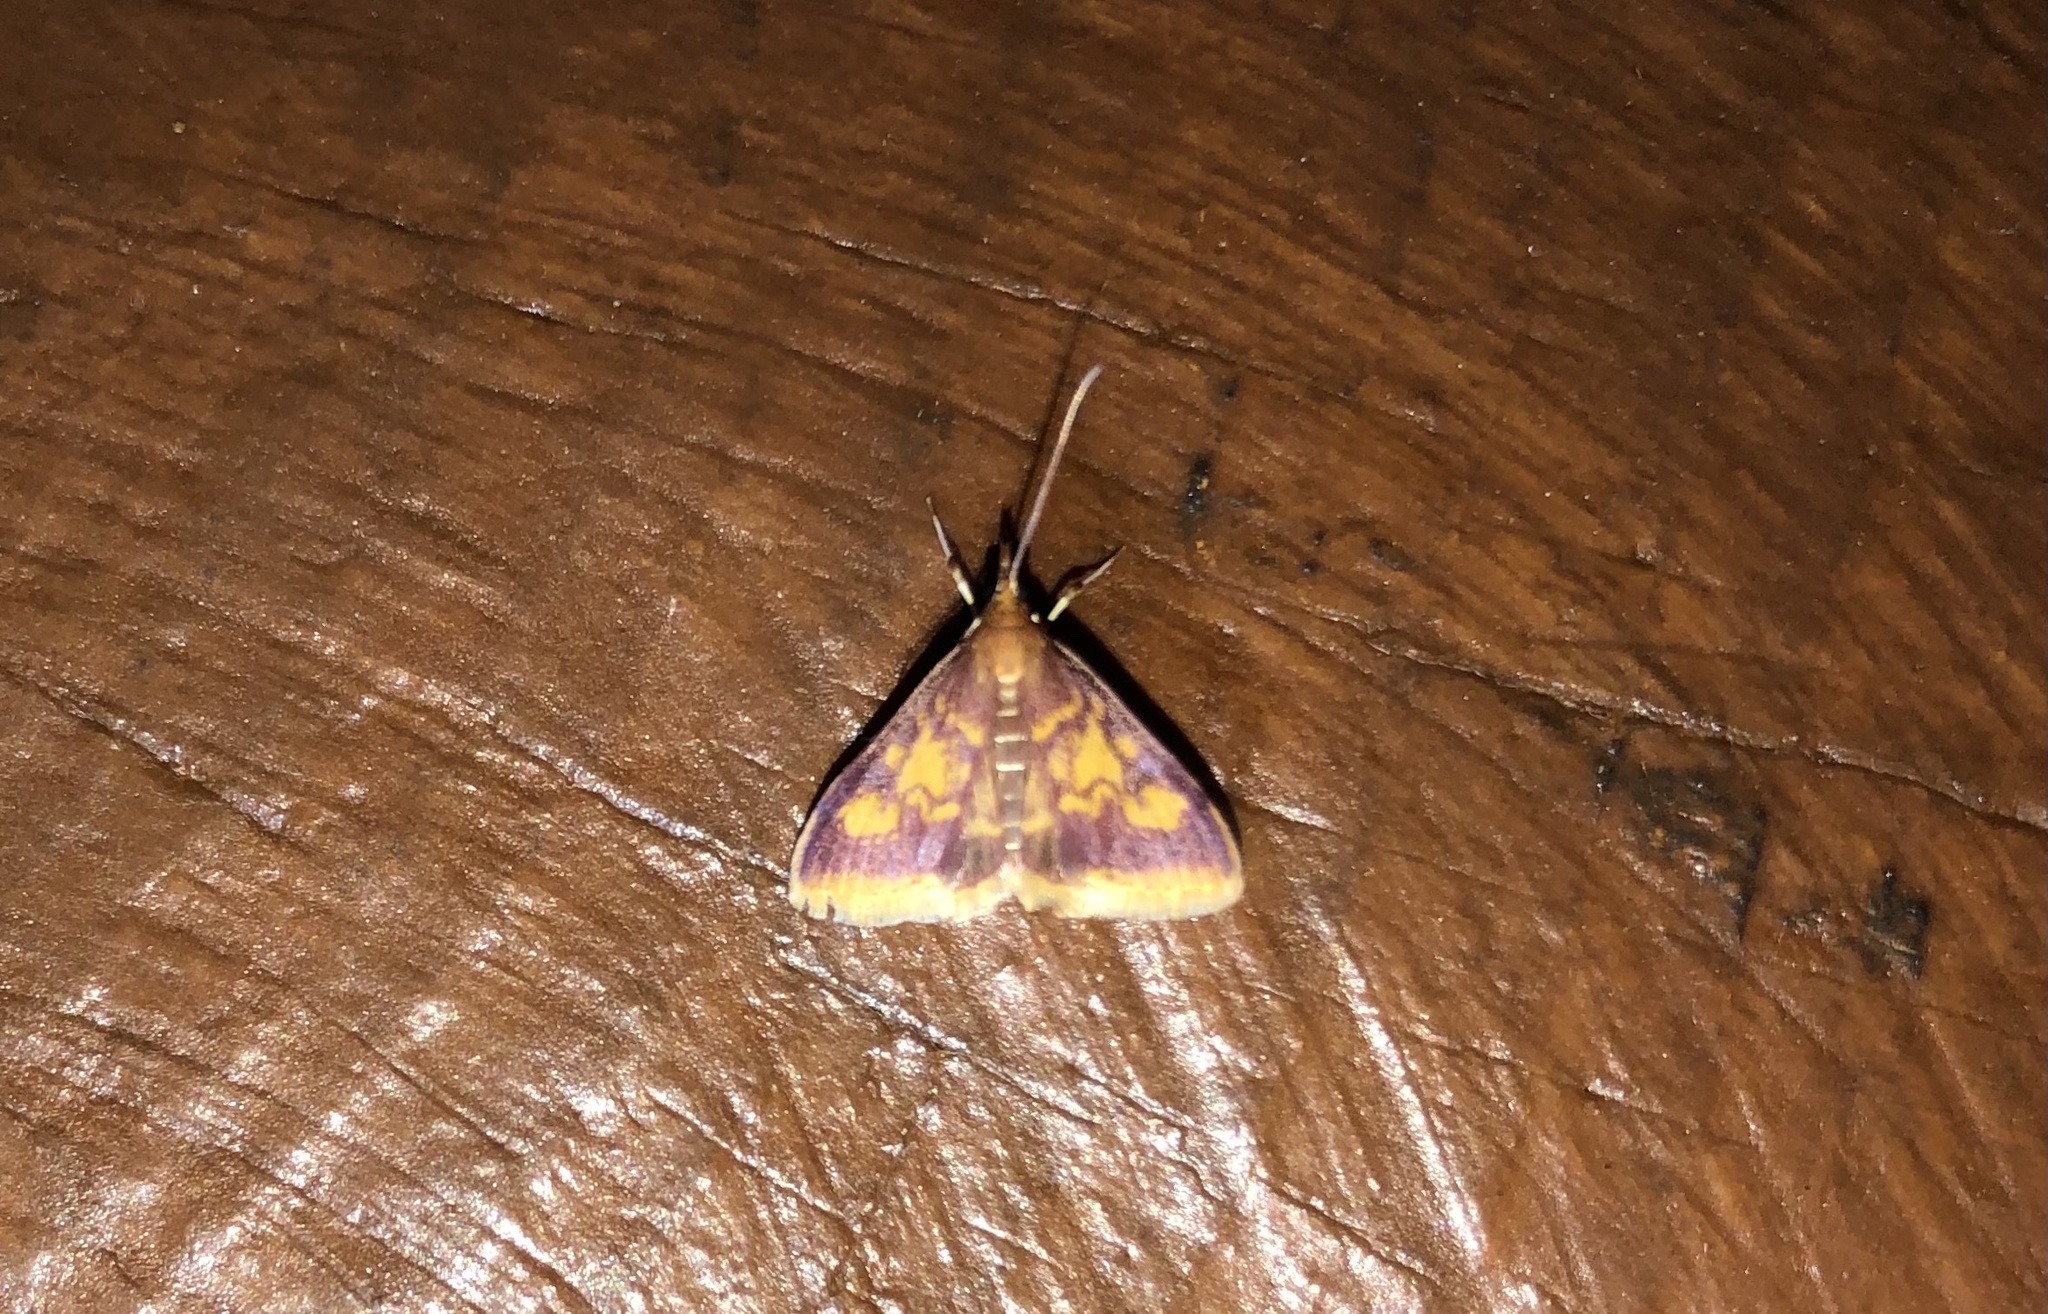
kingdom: Animalia
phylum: Arthropoda
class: Insecta
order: Lepidoptera
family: Crambidae
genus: Pyrausta
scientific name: Pyrausta acrionalis
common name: Mint-loving pyrausta moth
